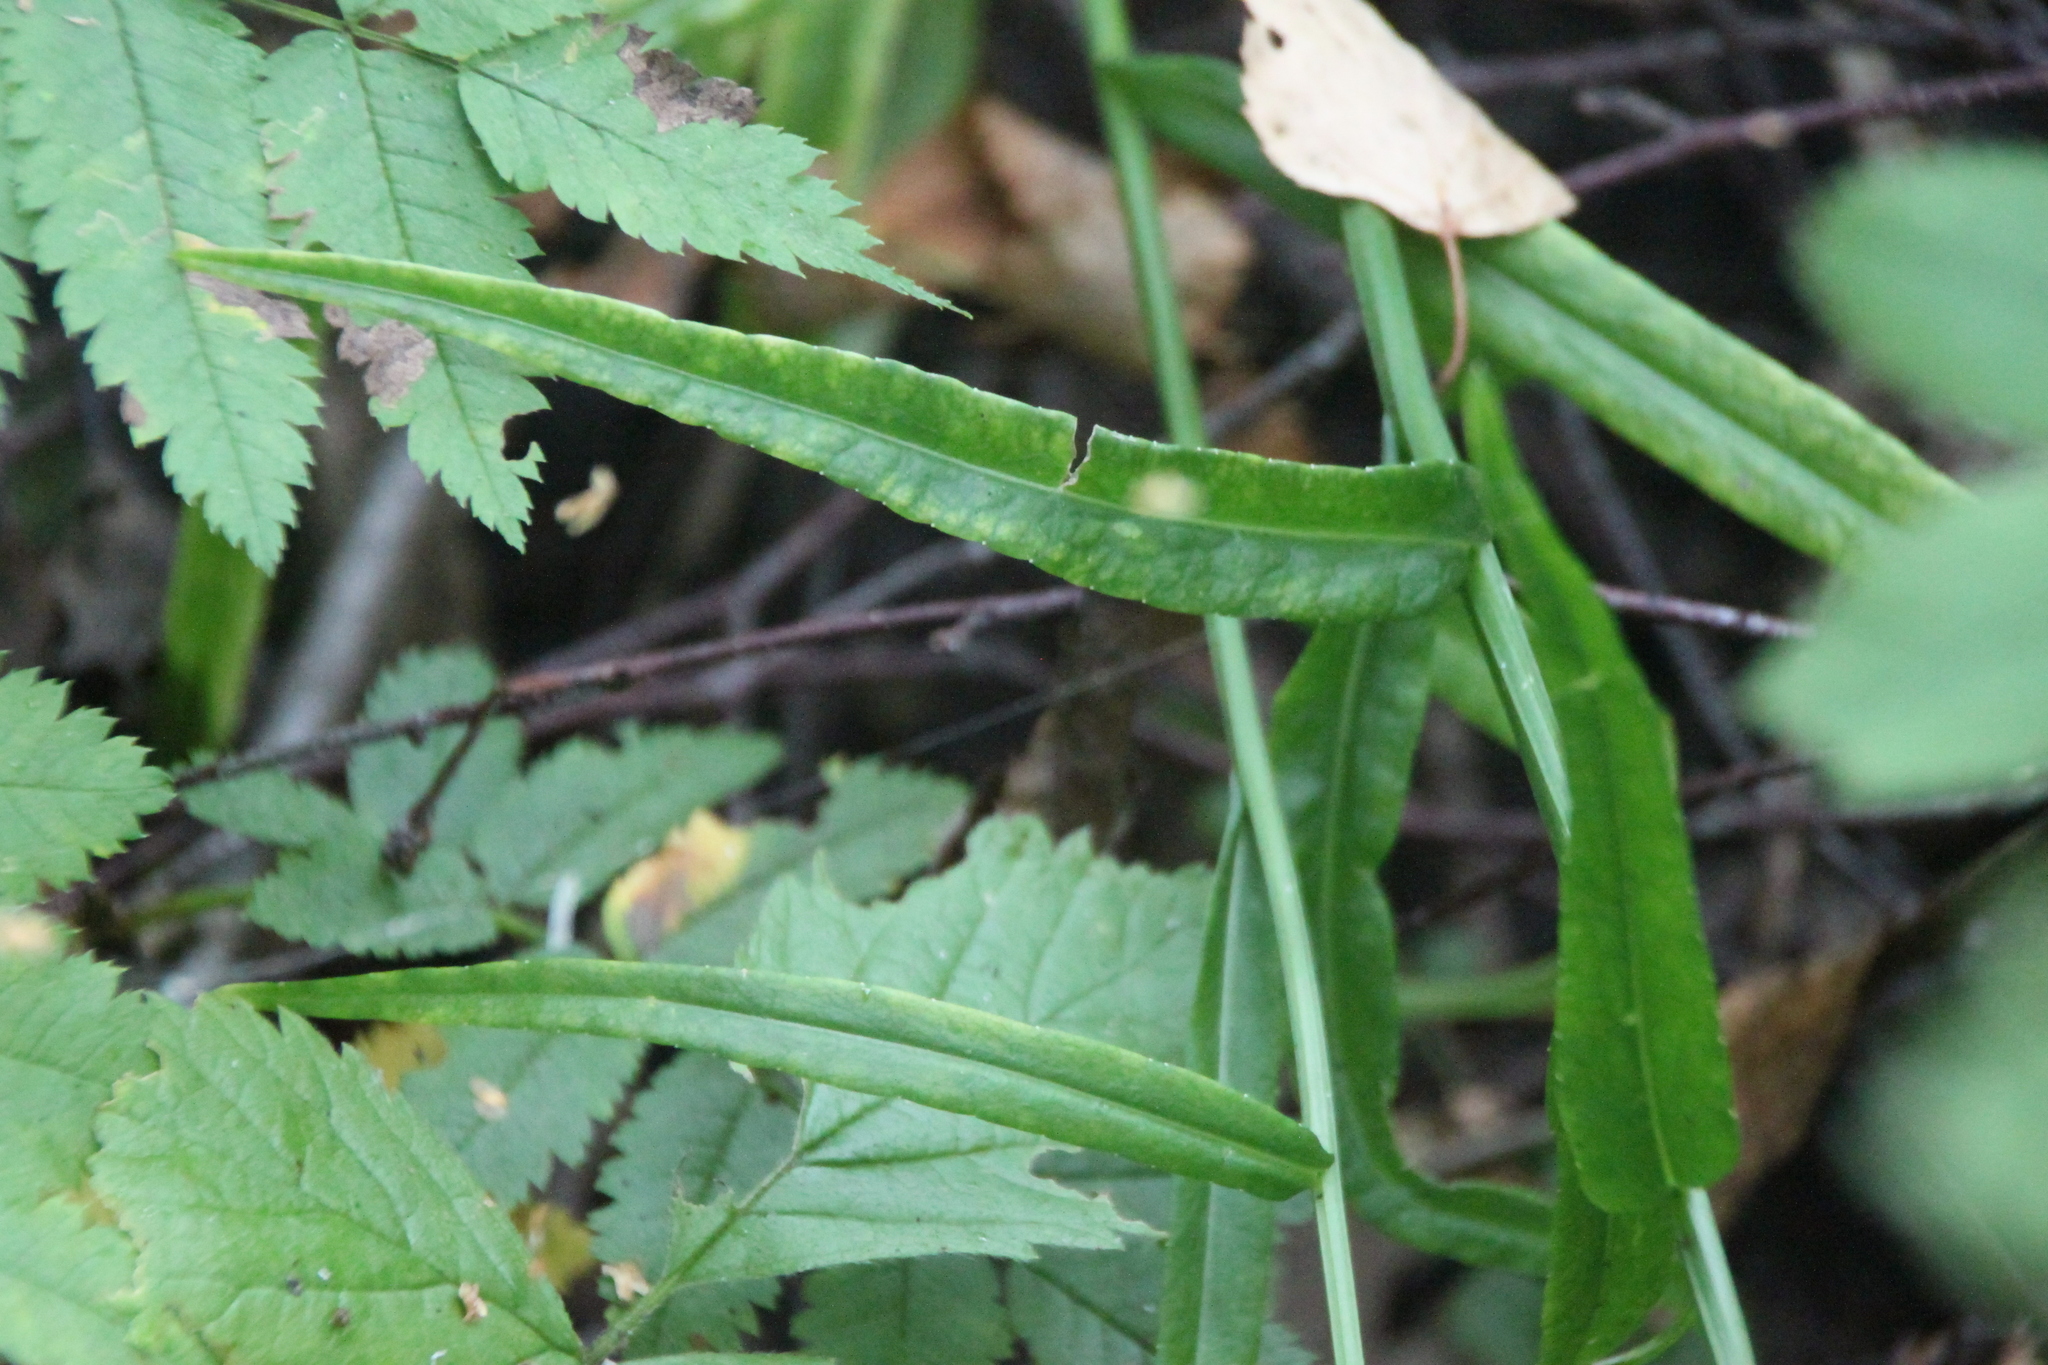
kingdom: Plantae
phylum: Tracheophyta
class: Magnoliopsida
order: Asterales
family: Campanulaceae
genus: Campanula
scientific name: Campanula persicifolia
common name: Peach-leaved bellflower
